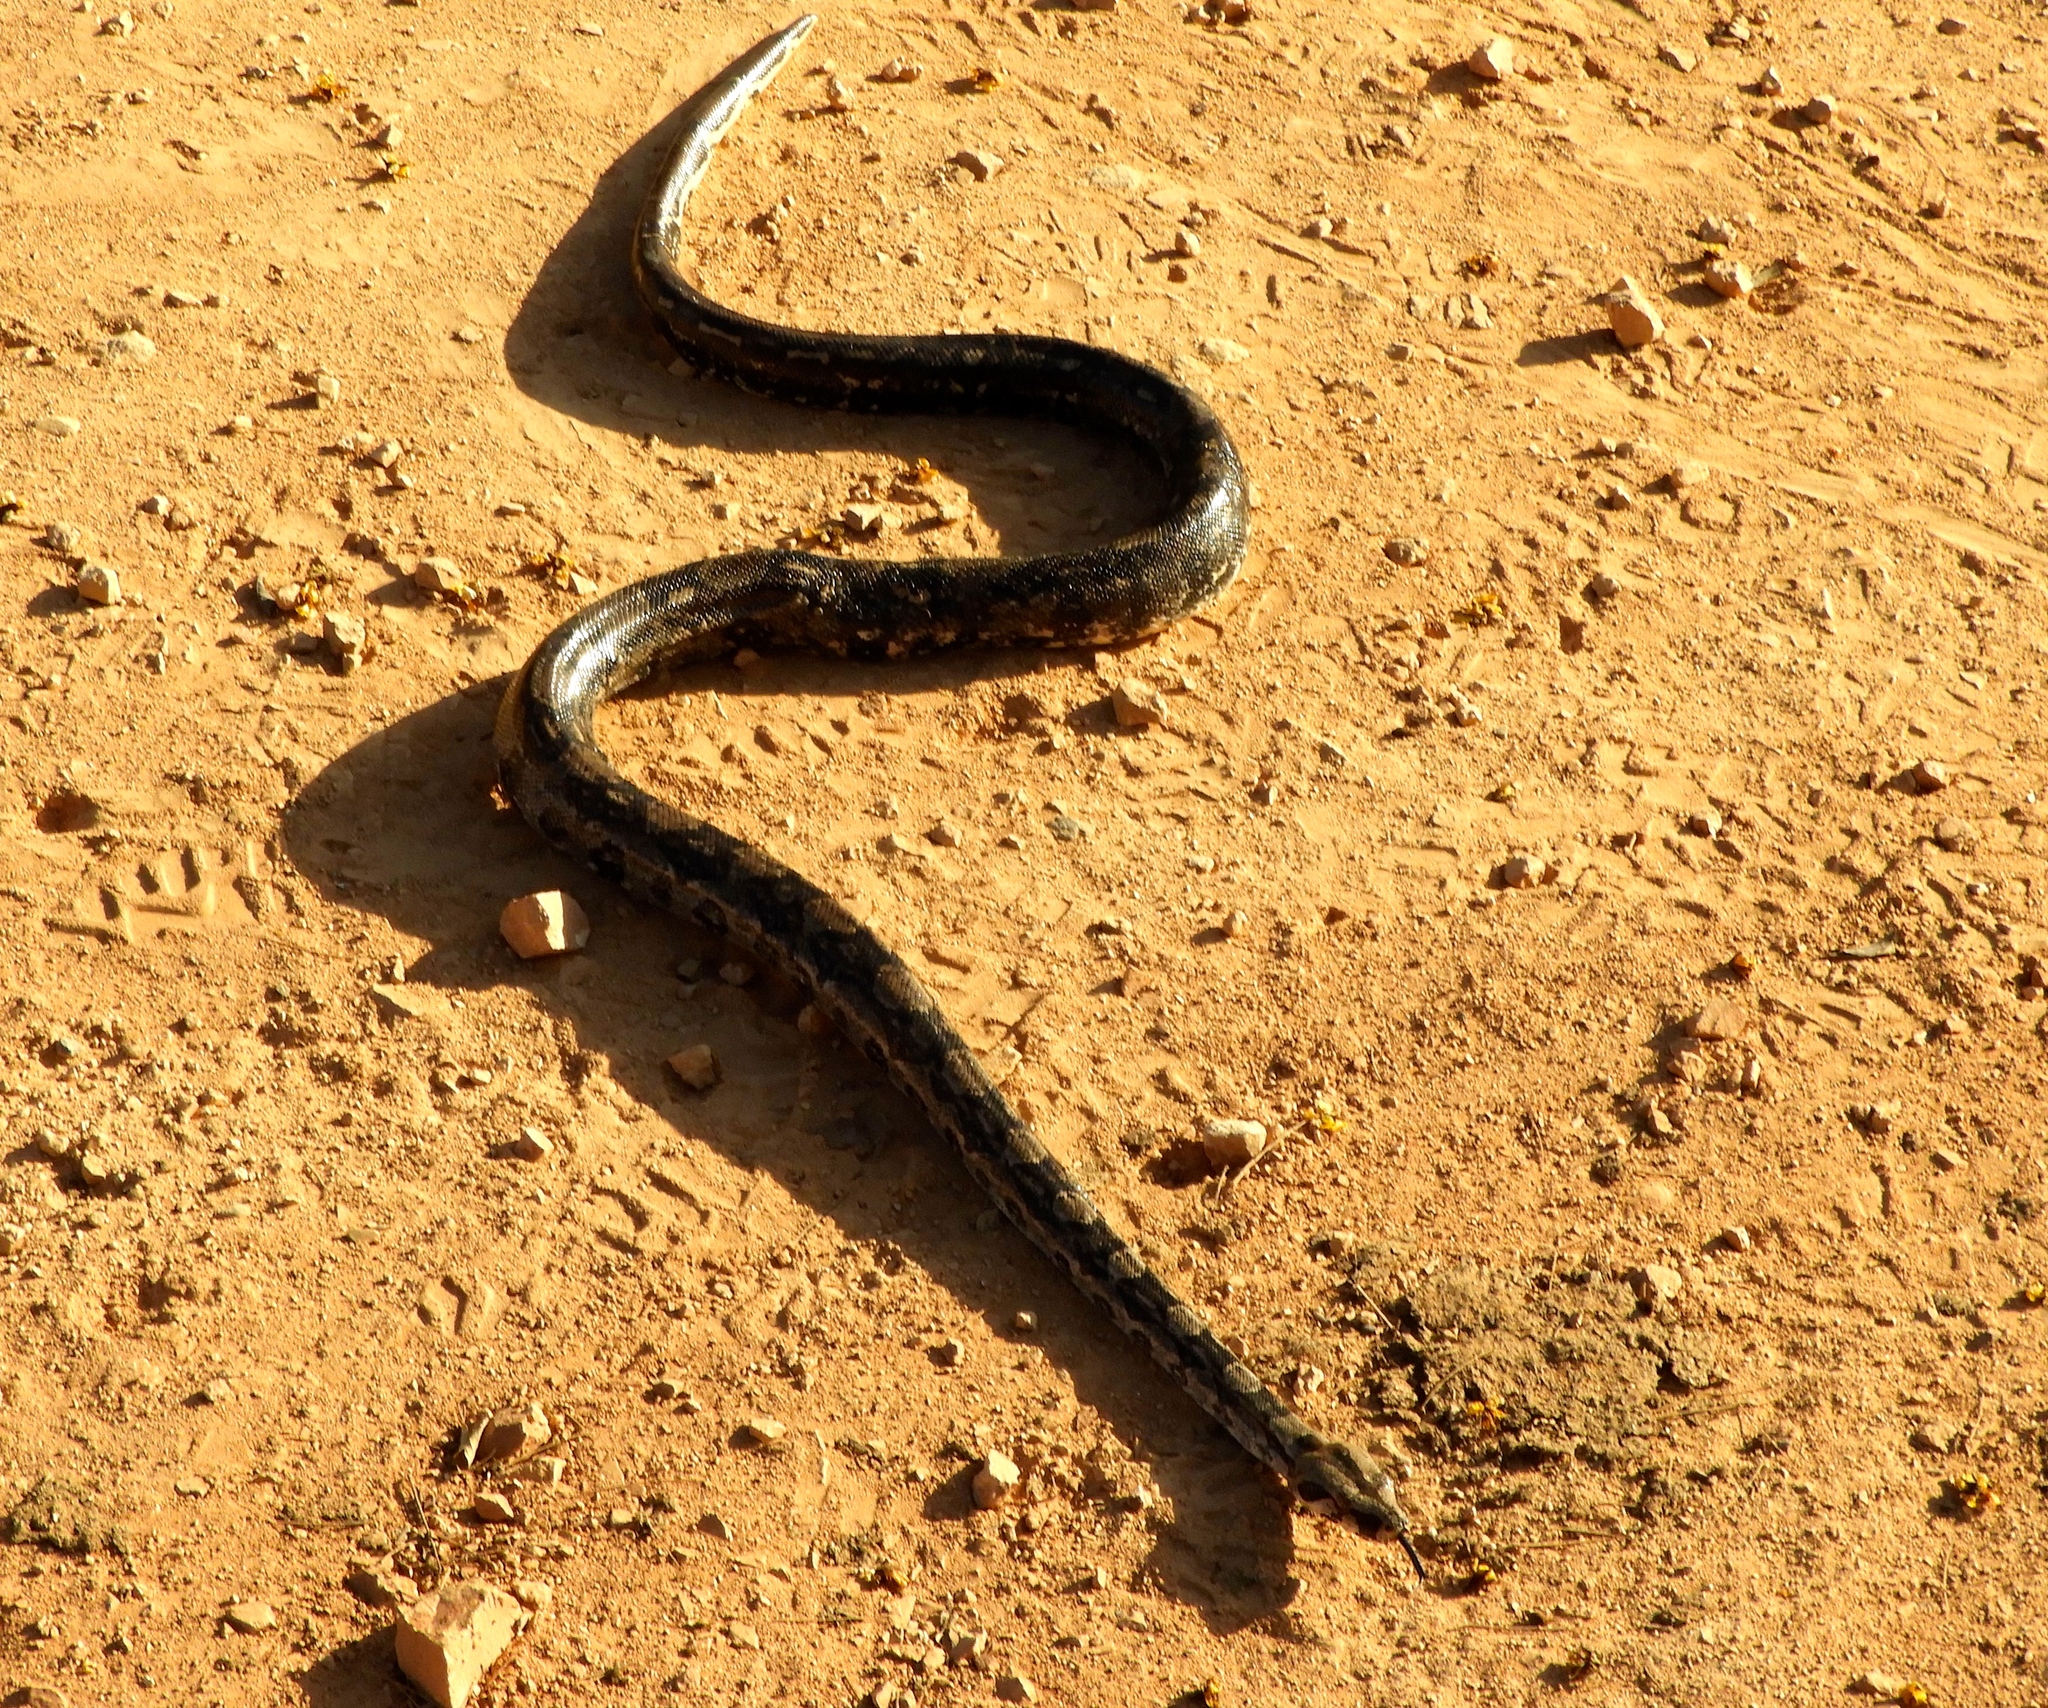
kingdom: Animalia
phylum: Chordata
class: Squamata
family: Boidae
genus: Boa
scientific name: Boa
